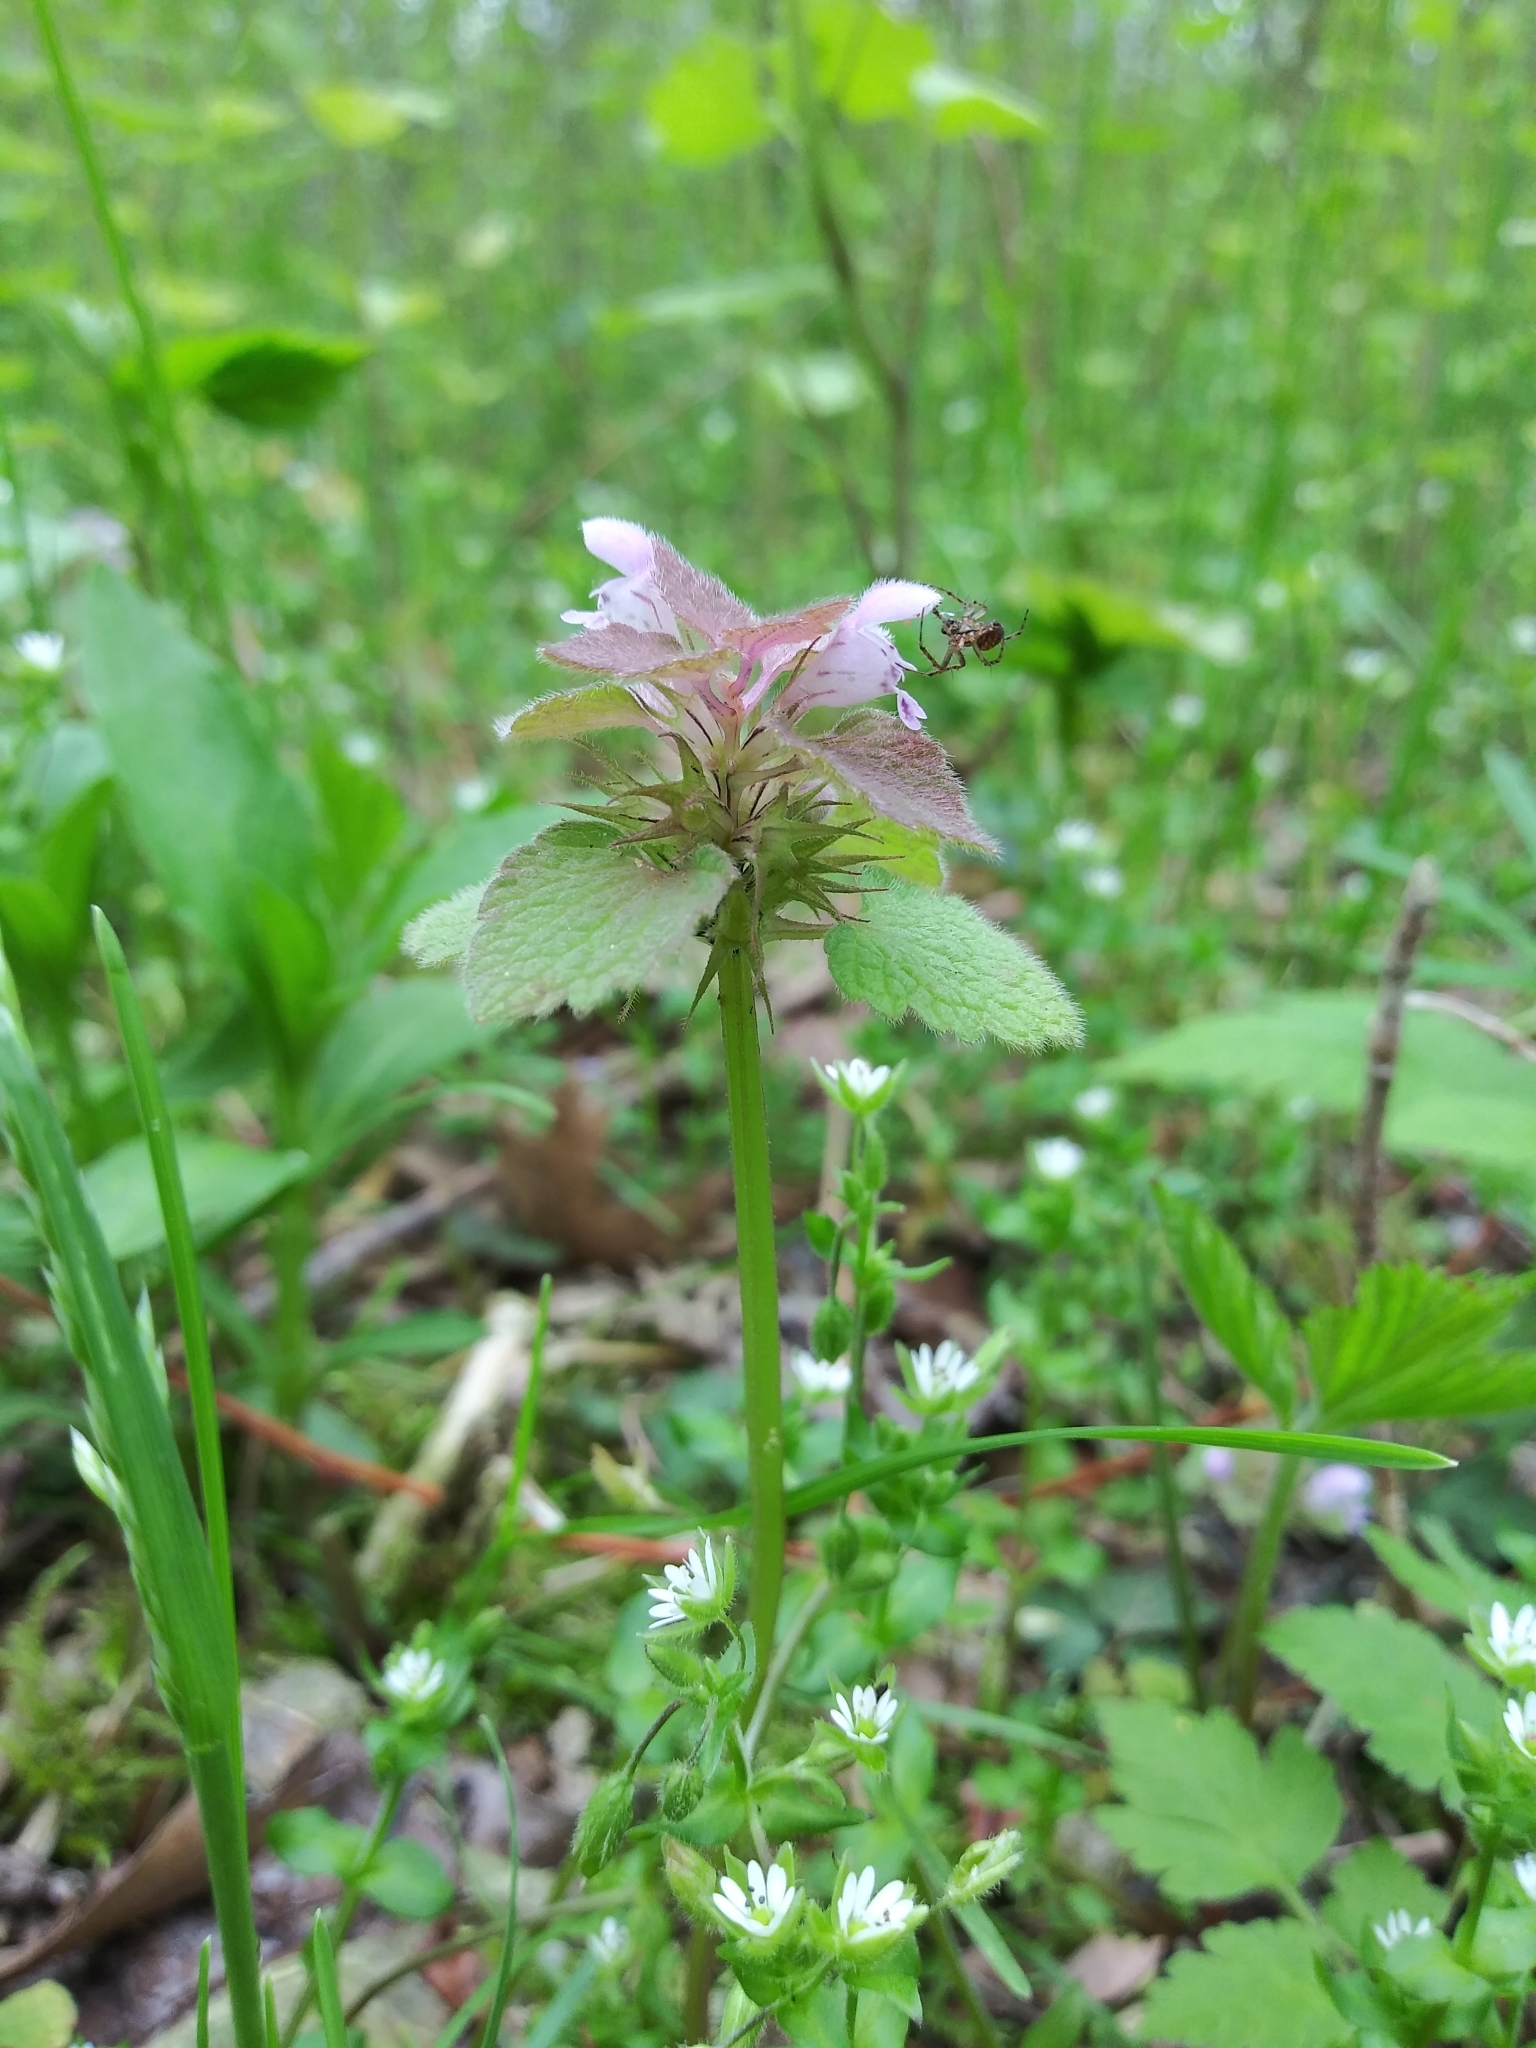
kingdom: Plantae
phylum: Tracheophyta
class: Magnoliopsida
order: Lamiales
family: Lamiaceae
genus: Lamium
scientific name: Lamium purpureum
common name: Red dead-nettle
